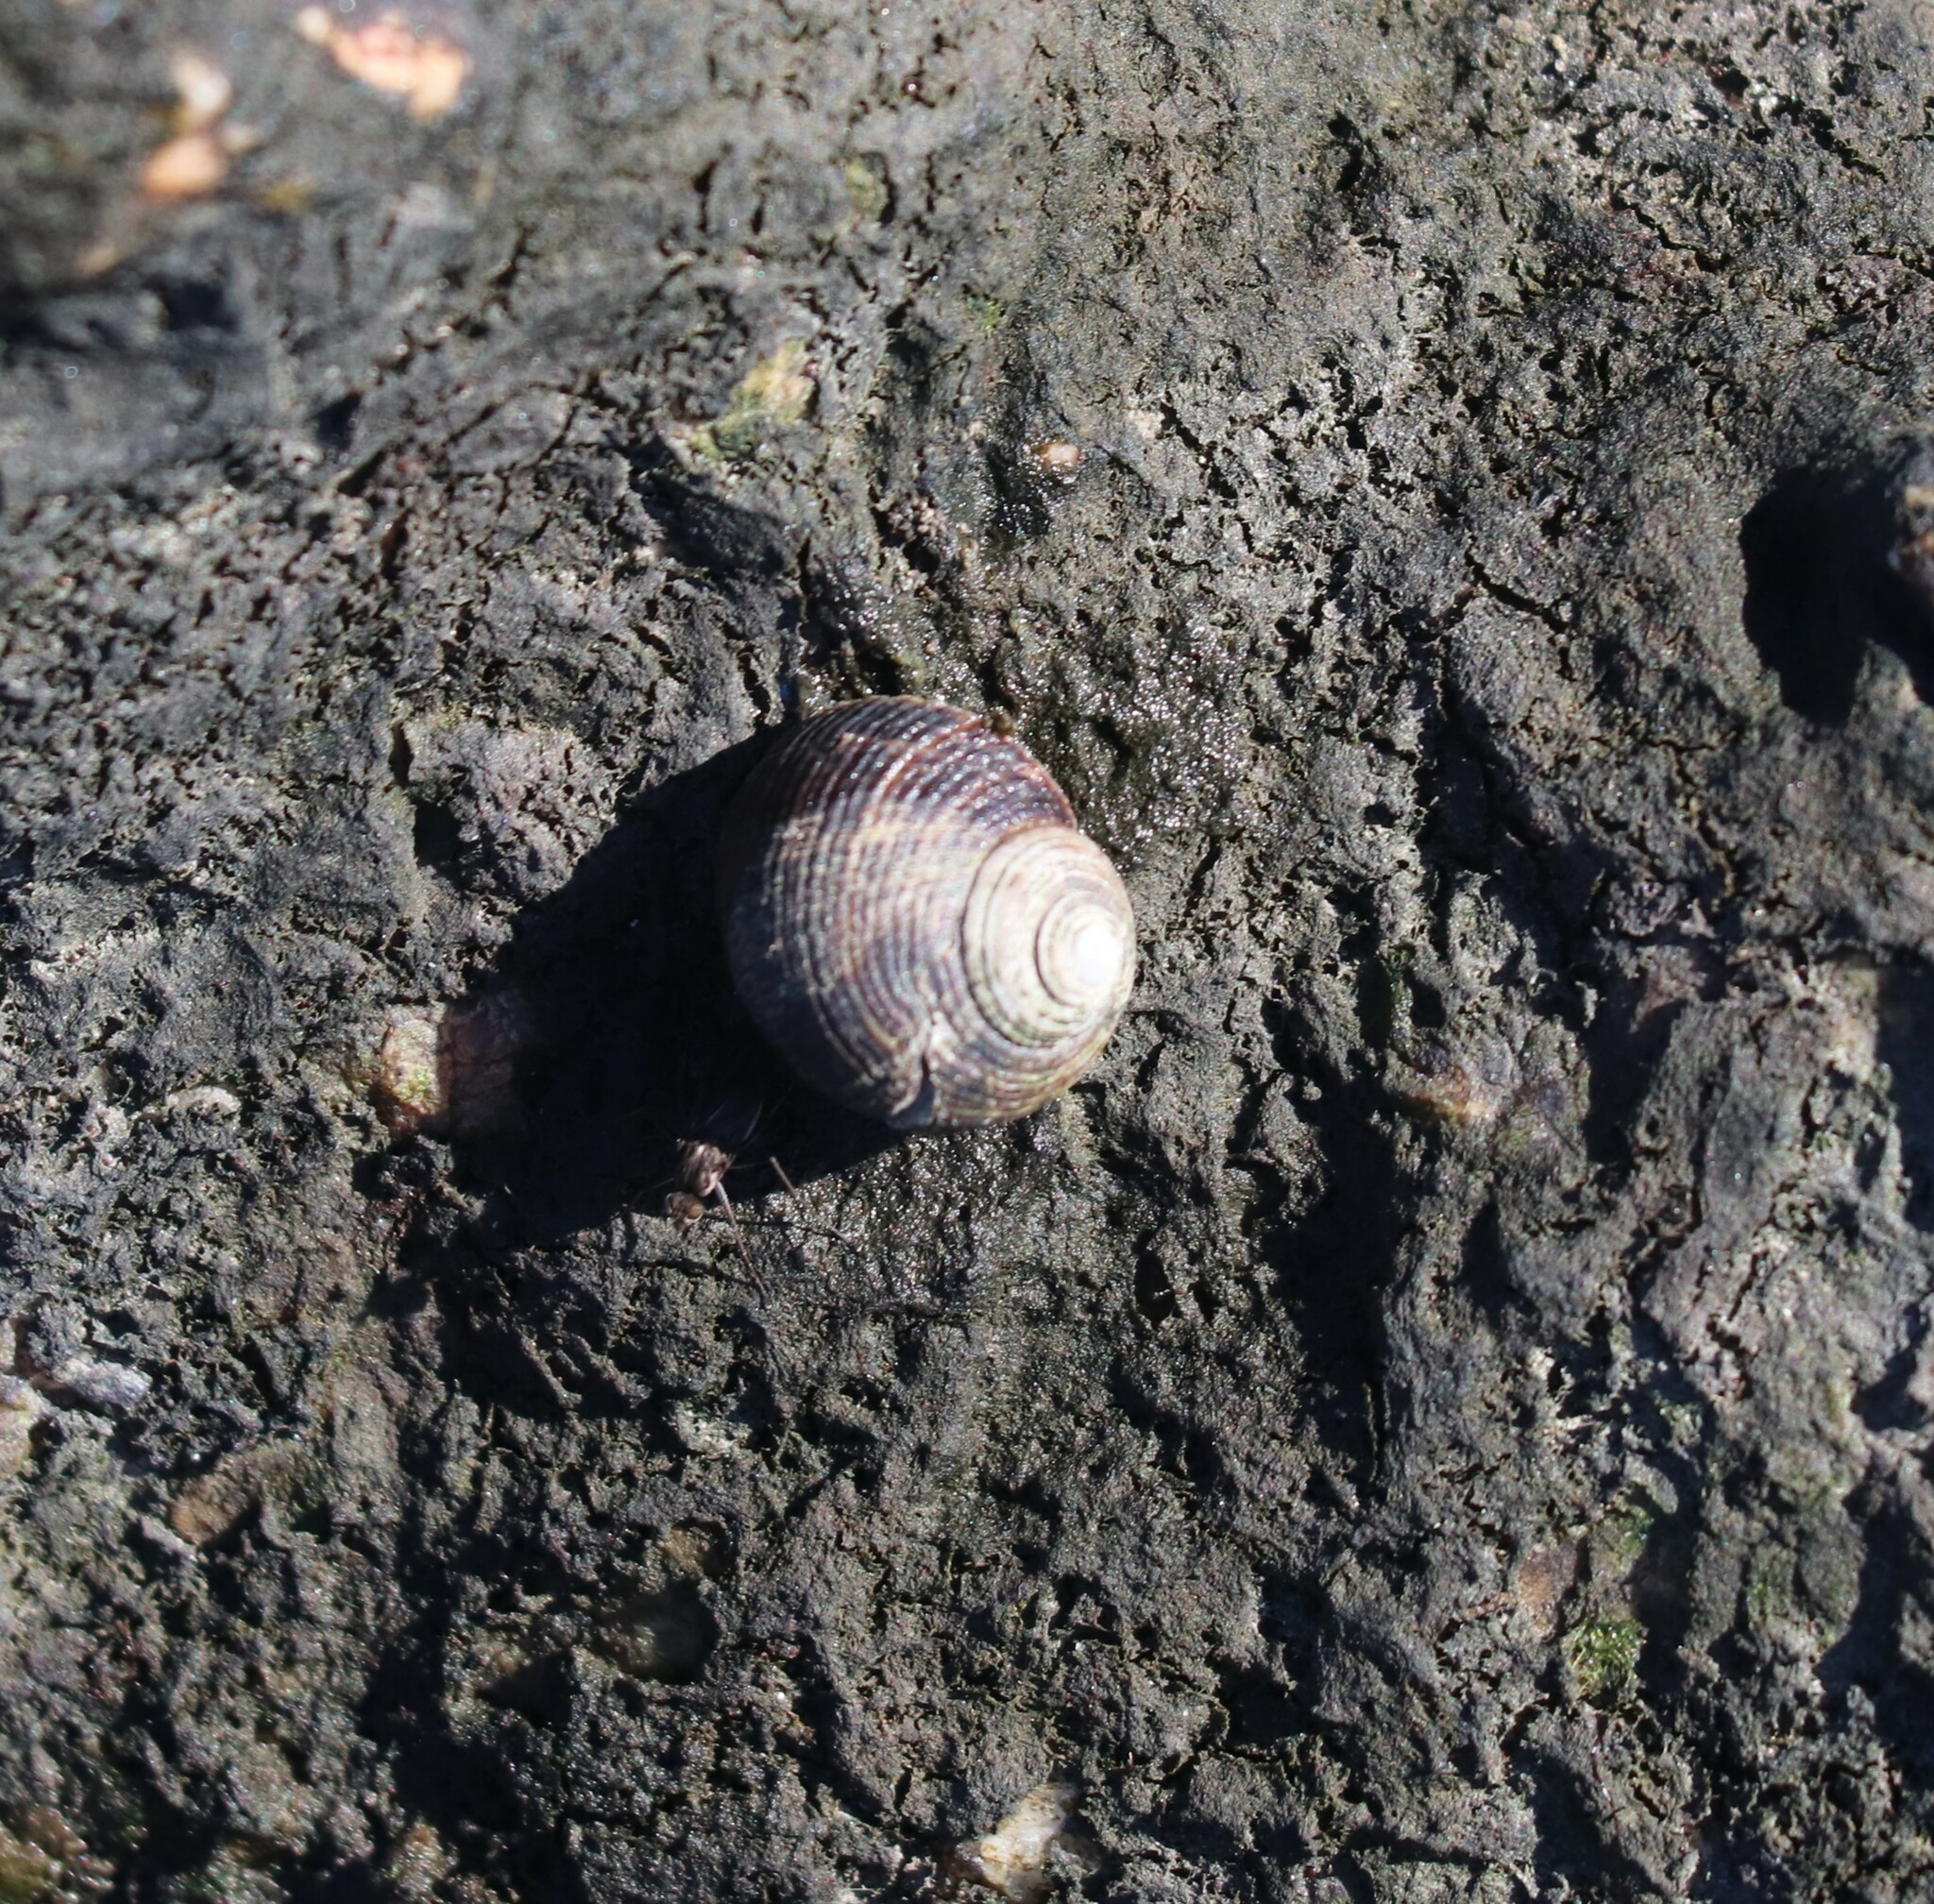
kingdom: Animalia
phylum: Mollusca
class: Gastropoda
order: Littorinimorpha
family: Littorinidae
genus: Littorina
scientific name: Littorina littorea
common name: Common periwinkle
